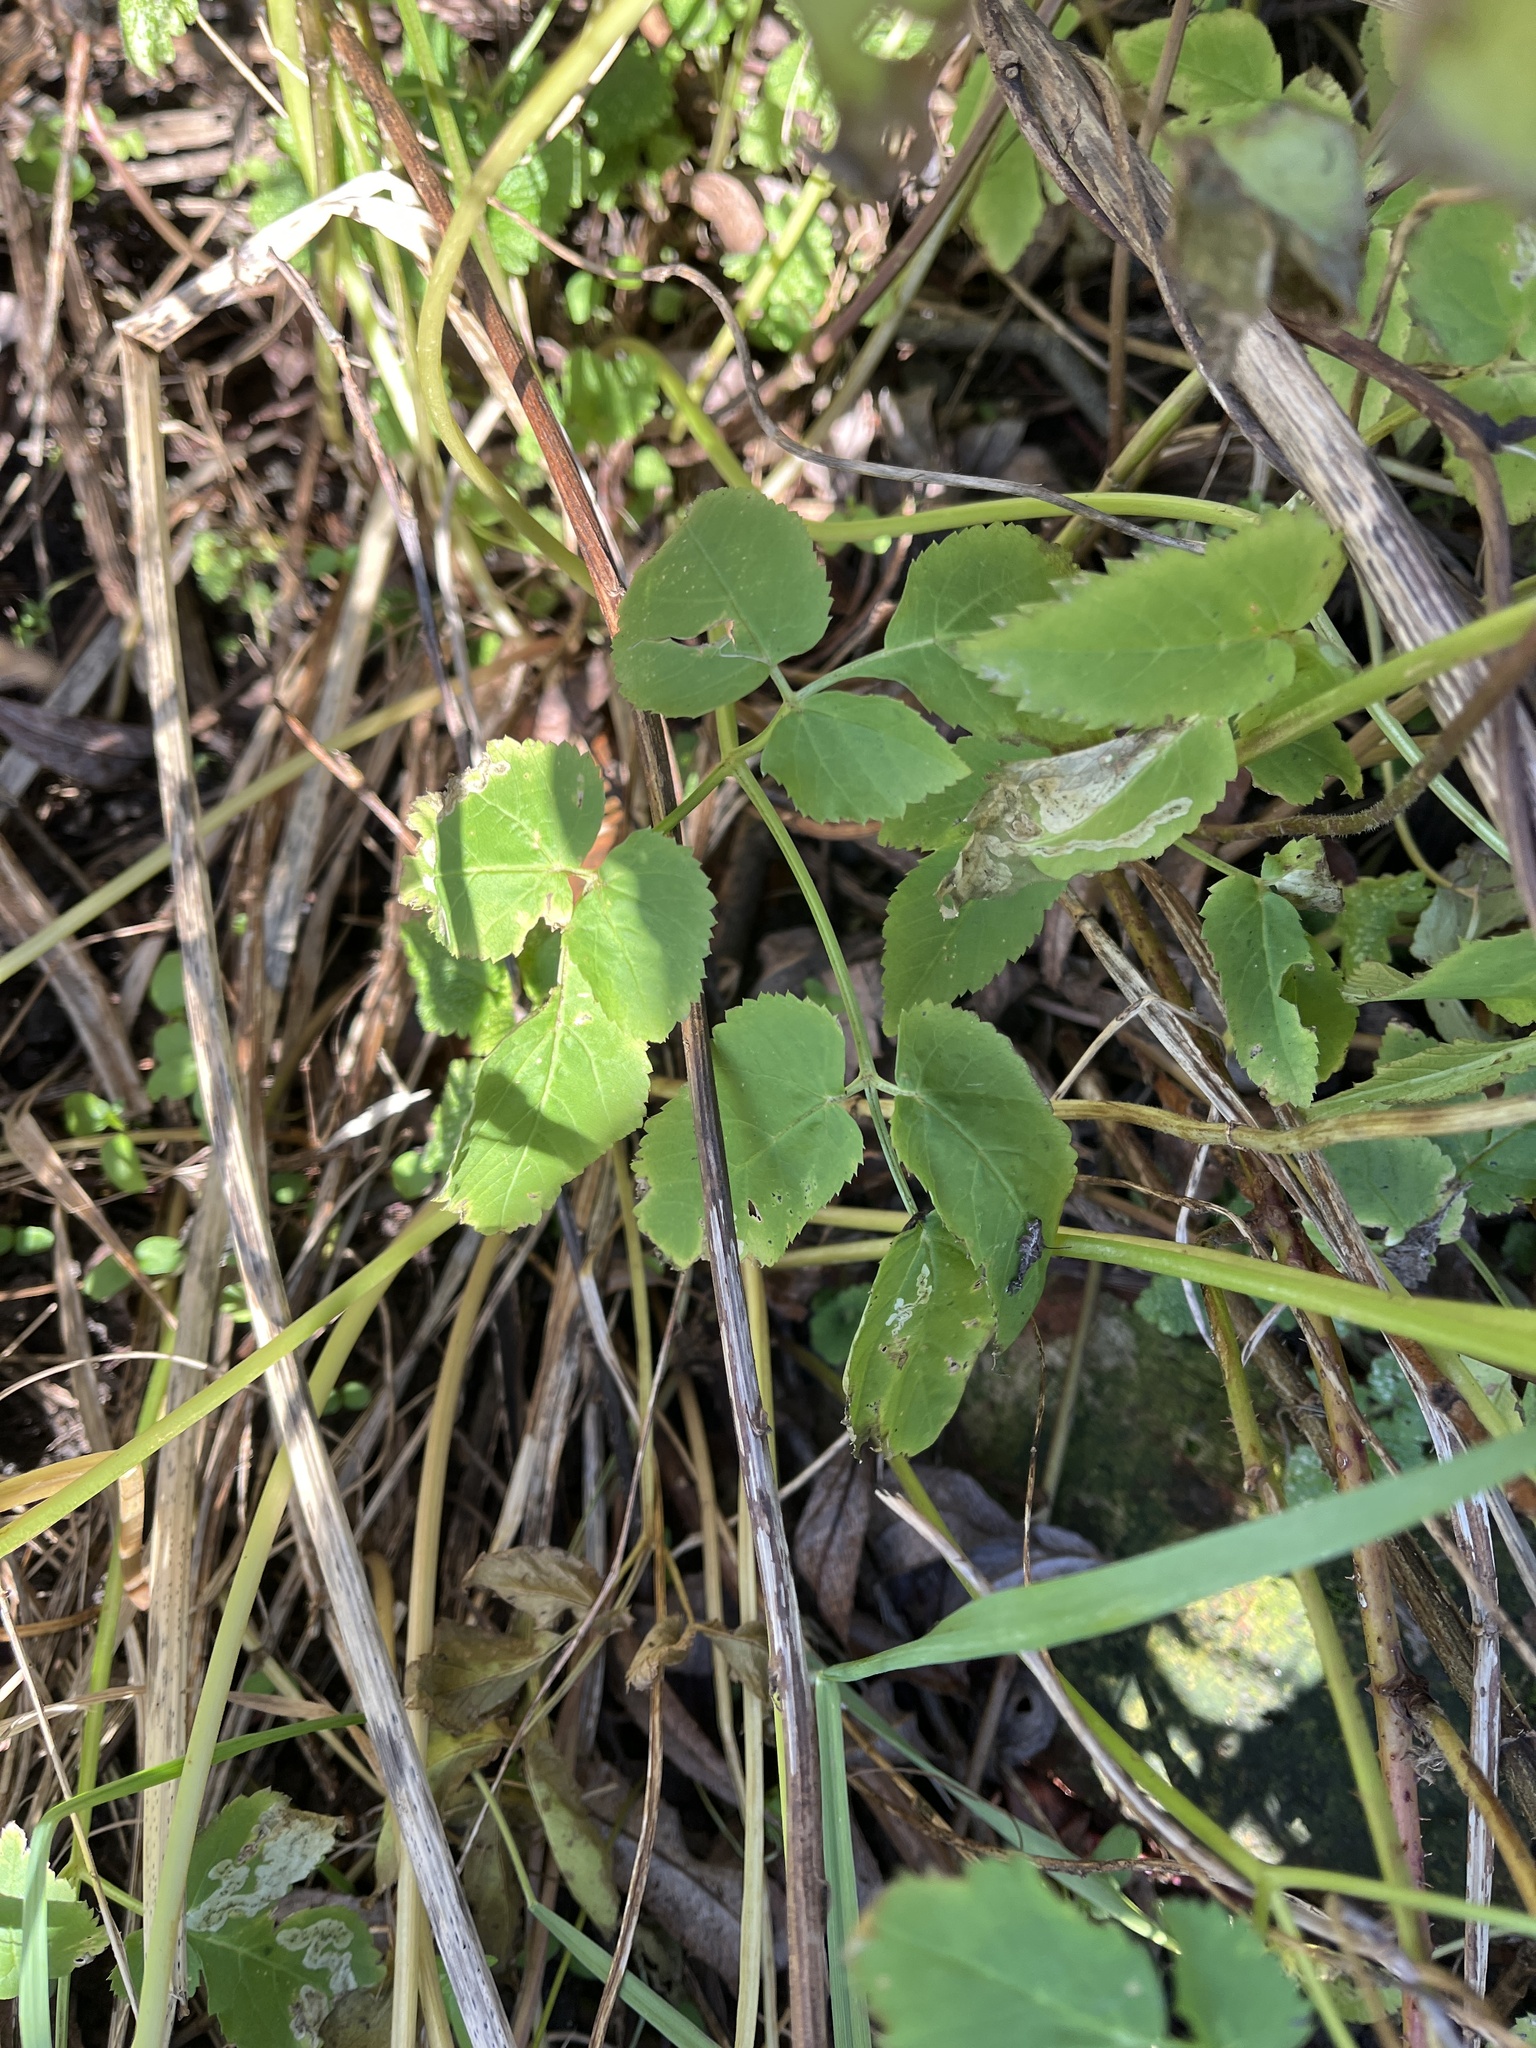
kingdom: Plantae
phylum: Tracheophyta
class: Magnoliopsida
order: Apiales
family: Apiaceae
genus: Aegopodium
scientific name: Aegopodium podagraria
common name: Ground-elder
